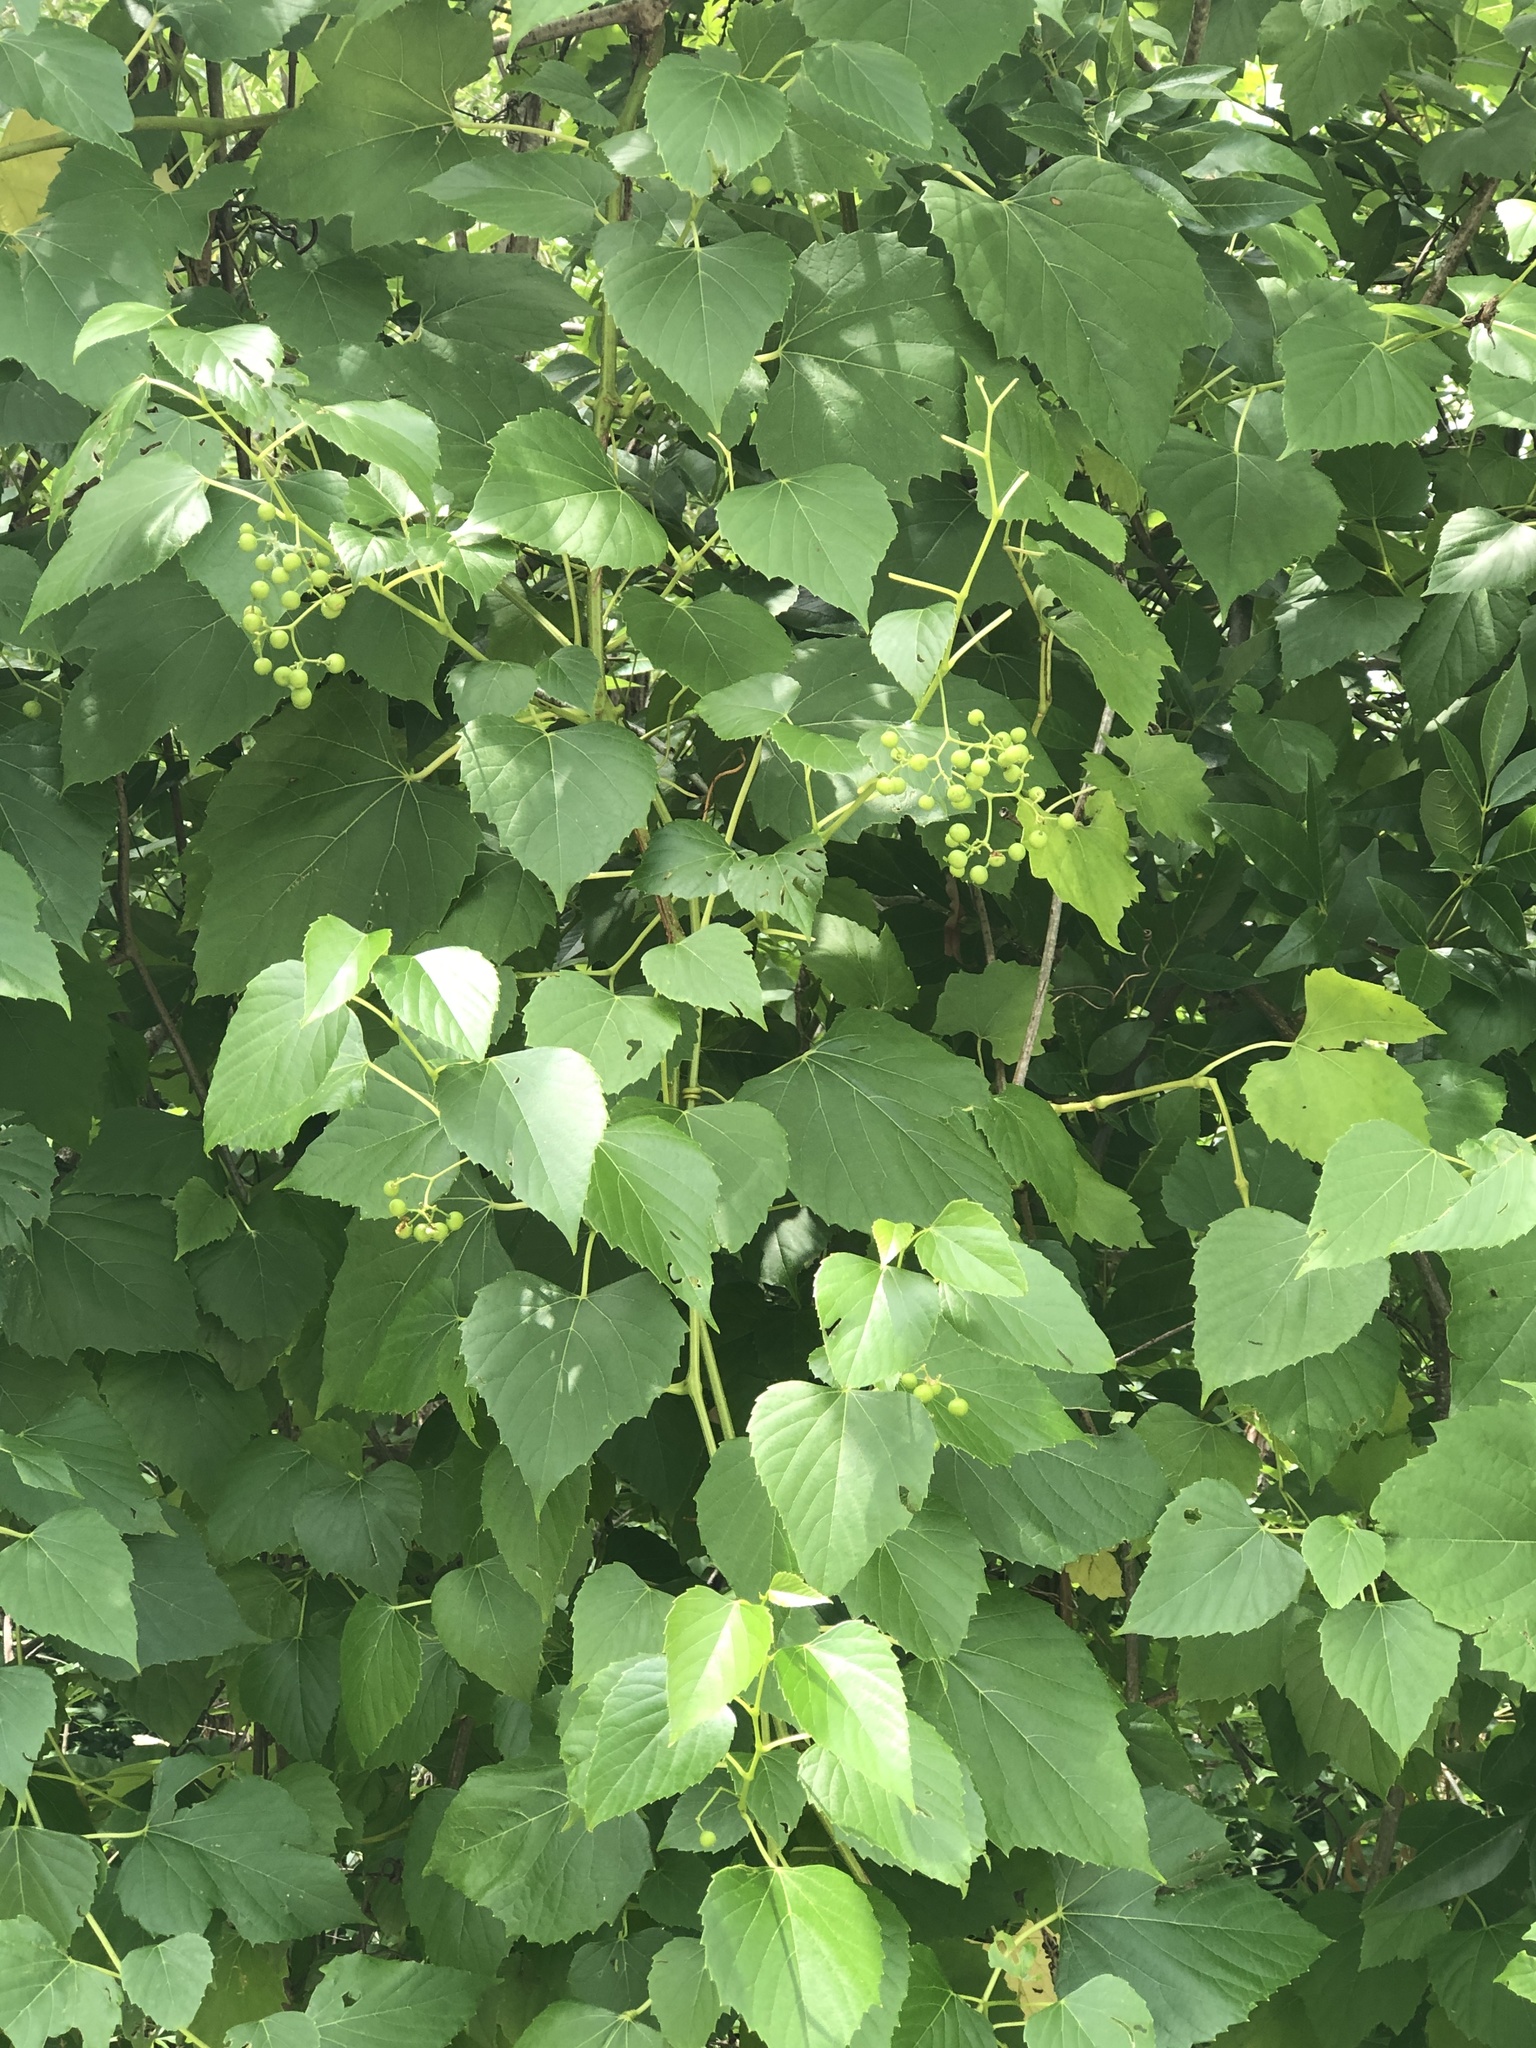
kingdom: Plantae
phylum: Tracheophyta
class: Magnoliopsida
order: Vitales
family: Vitaceae
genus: Ampelopsis
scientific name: Ampelopsis cordata
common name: Heart-leaf ampelopsis
